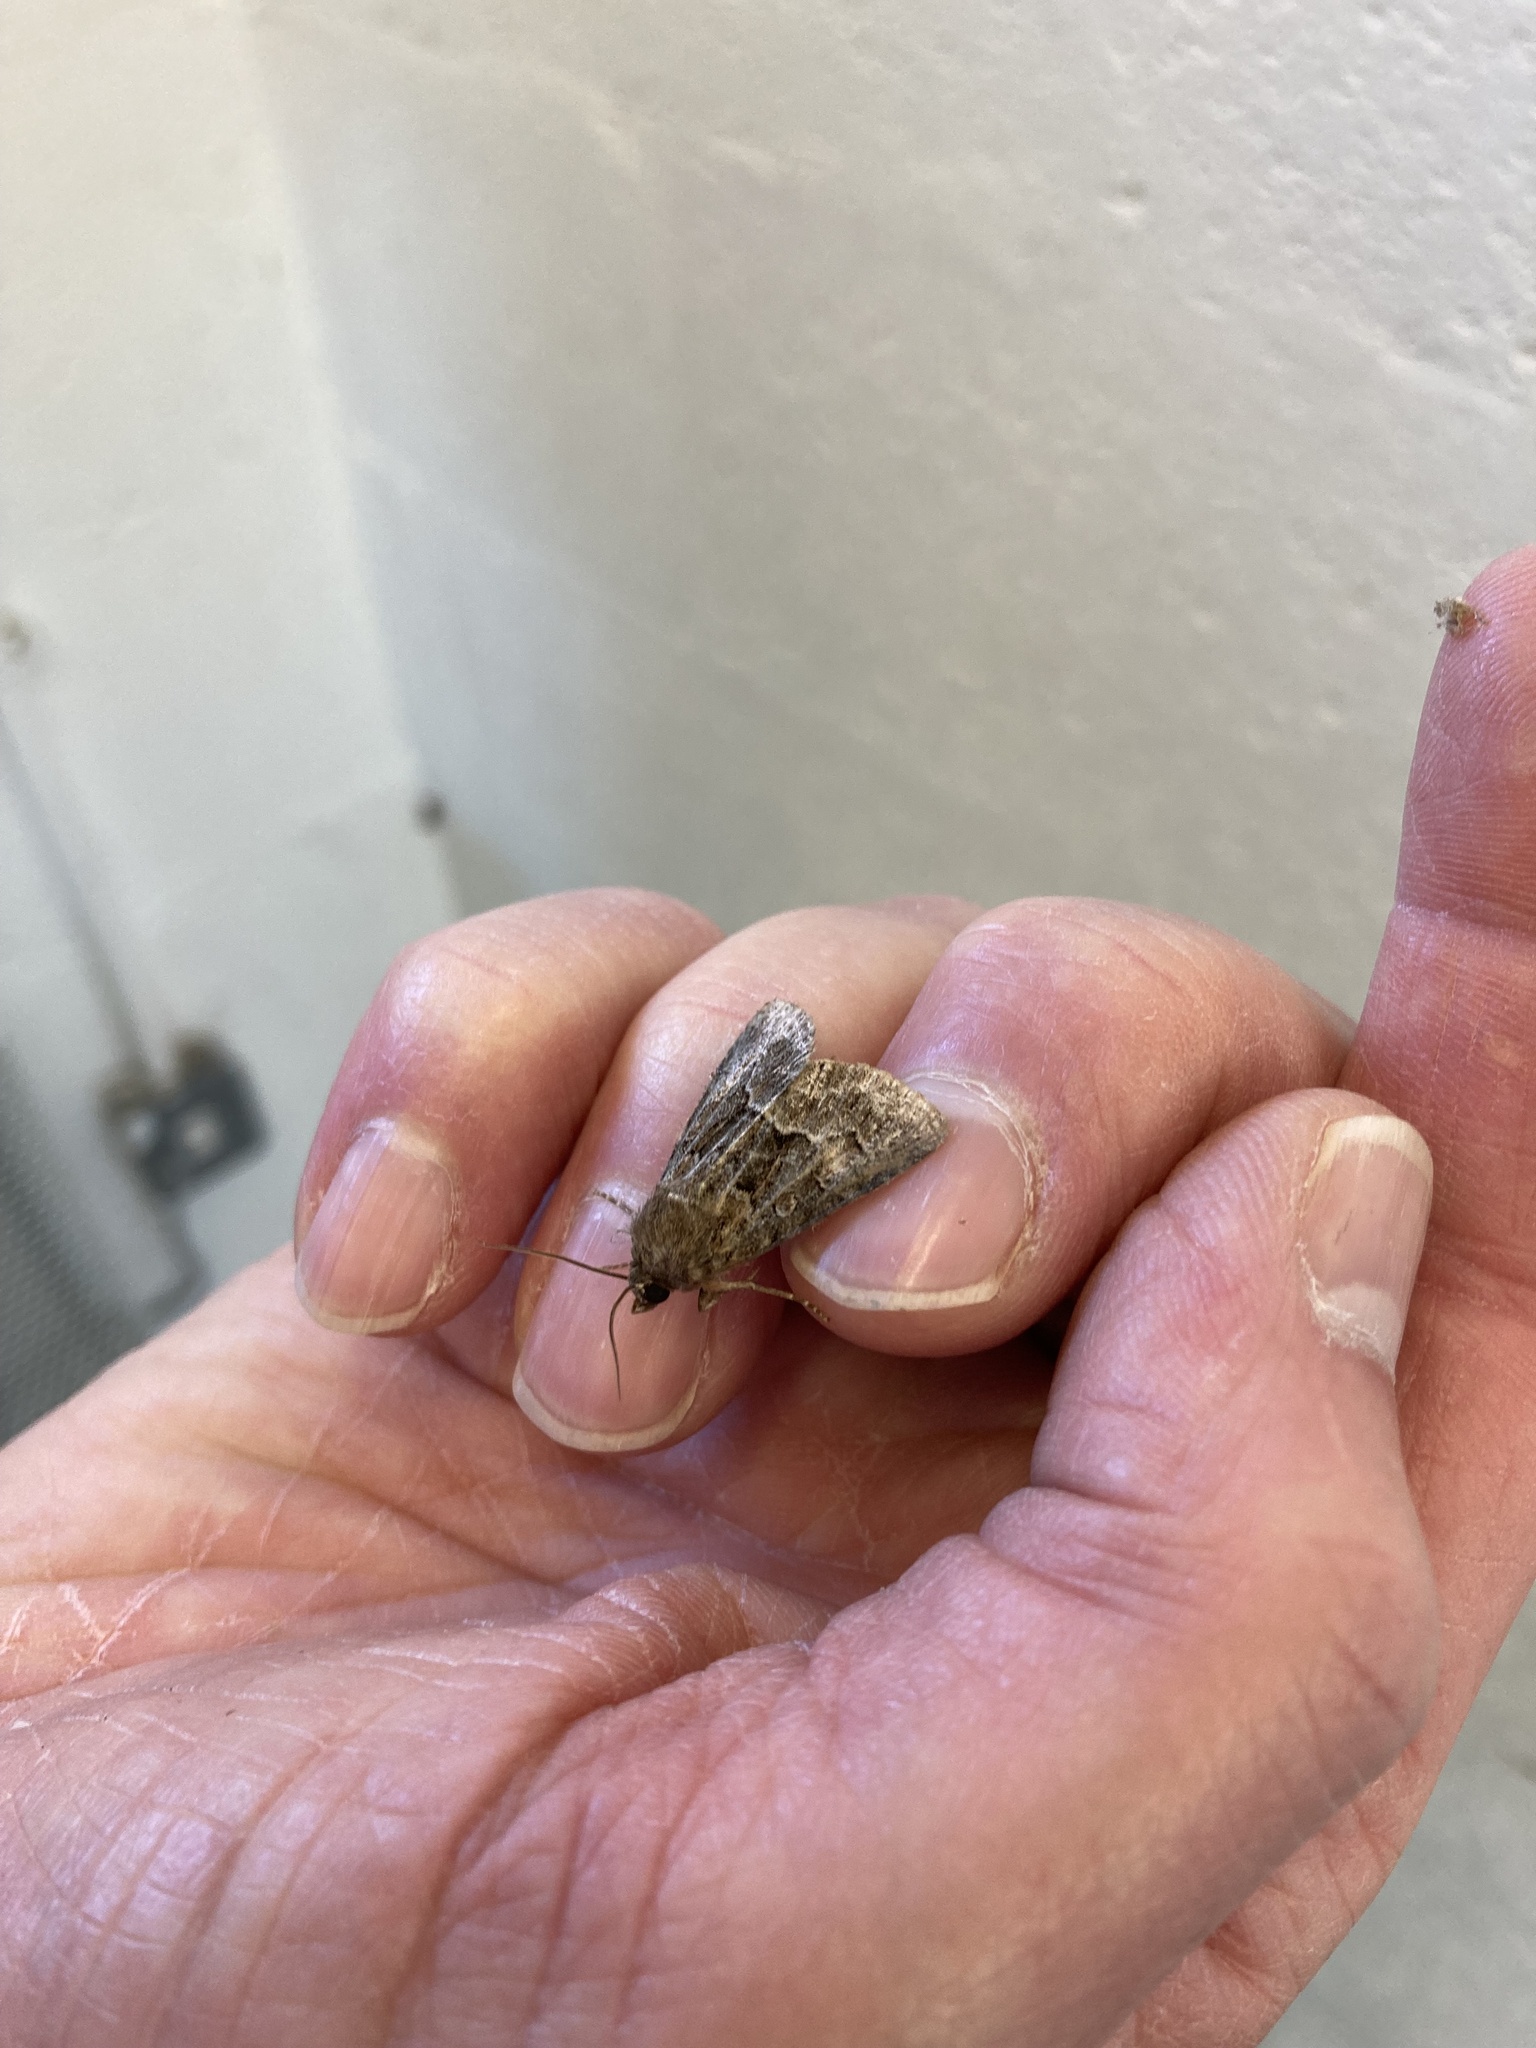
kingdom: Animalia
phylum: Arthropoda
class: Insecta
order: Lepidoptera
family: Noctuidae
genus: Thalpophila
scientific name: Thalpophila matura
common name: Straw underwing
